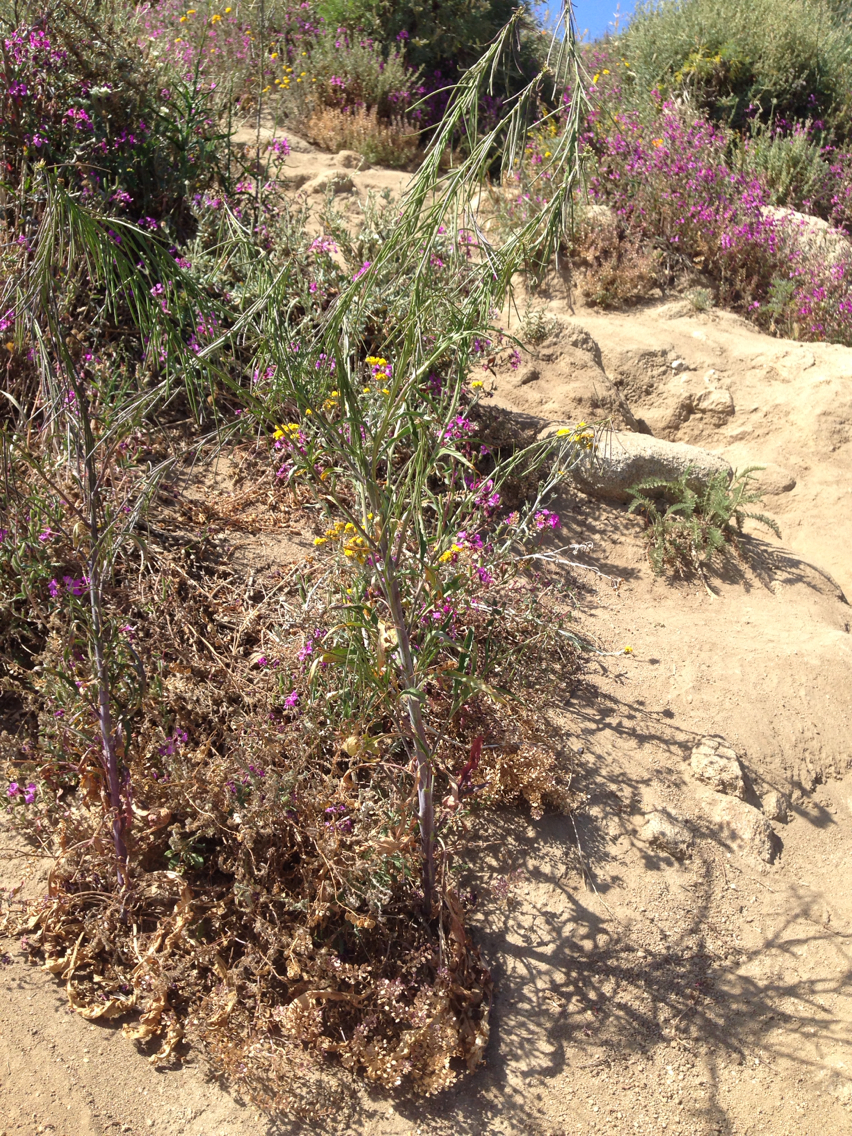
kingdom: Plantae
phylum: Tracheophyta
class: Magnoliopsida
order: Brassicales
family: Brassicaceae
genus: Streptanthus
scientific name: Streptanthus lasiophyllus
